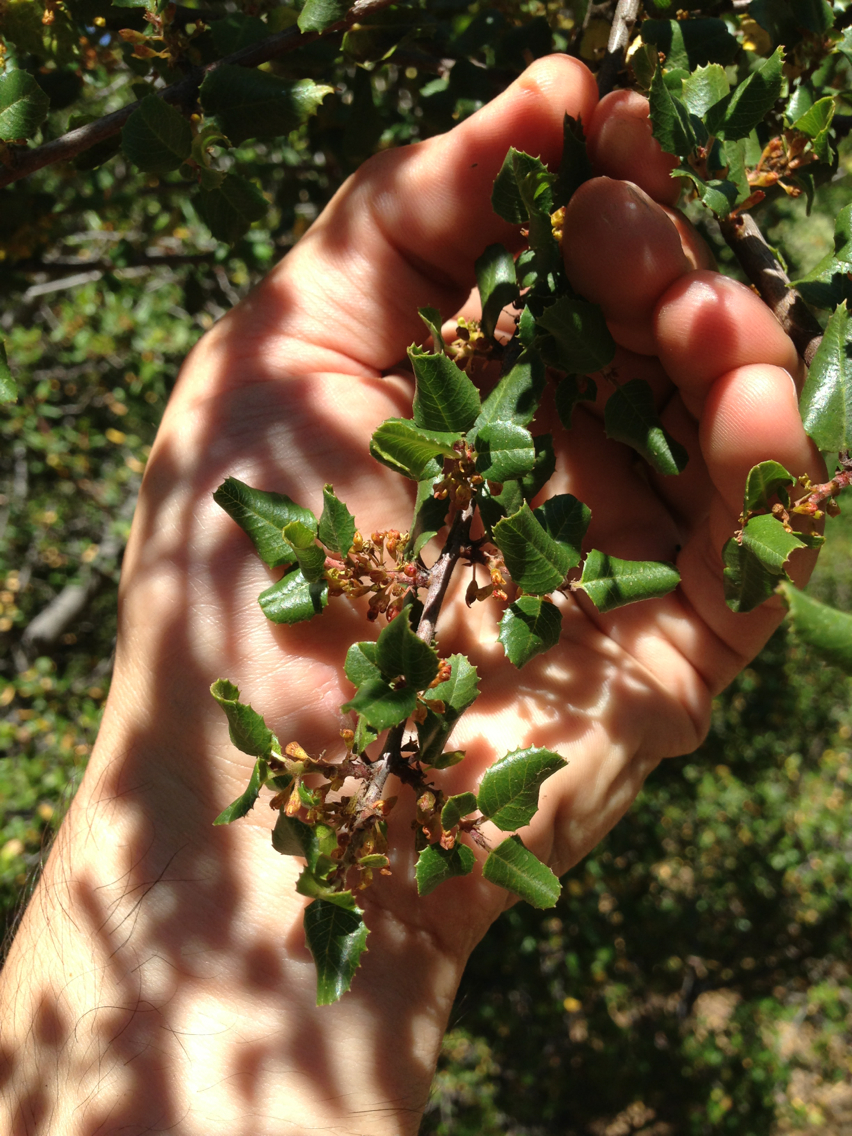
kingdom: Plantae
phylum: Tracheophyta
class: Magnoliopsida
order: Rosales
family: Rhamnaceae
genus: Endotropis
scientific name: Endotropis crocea
